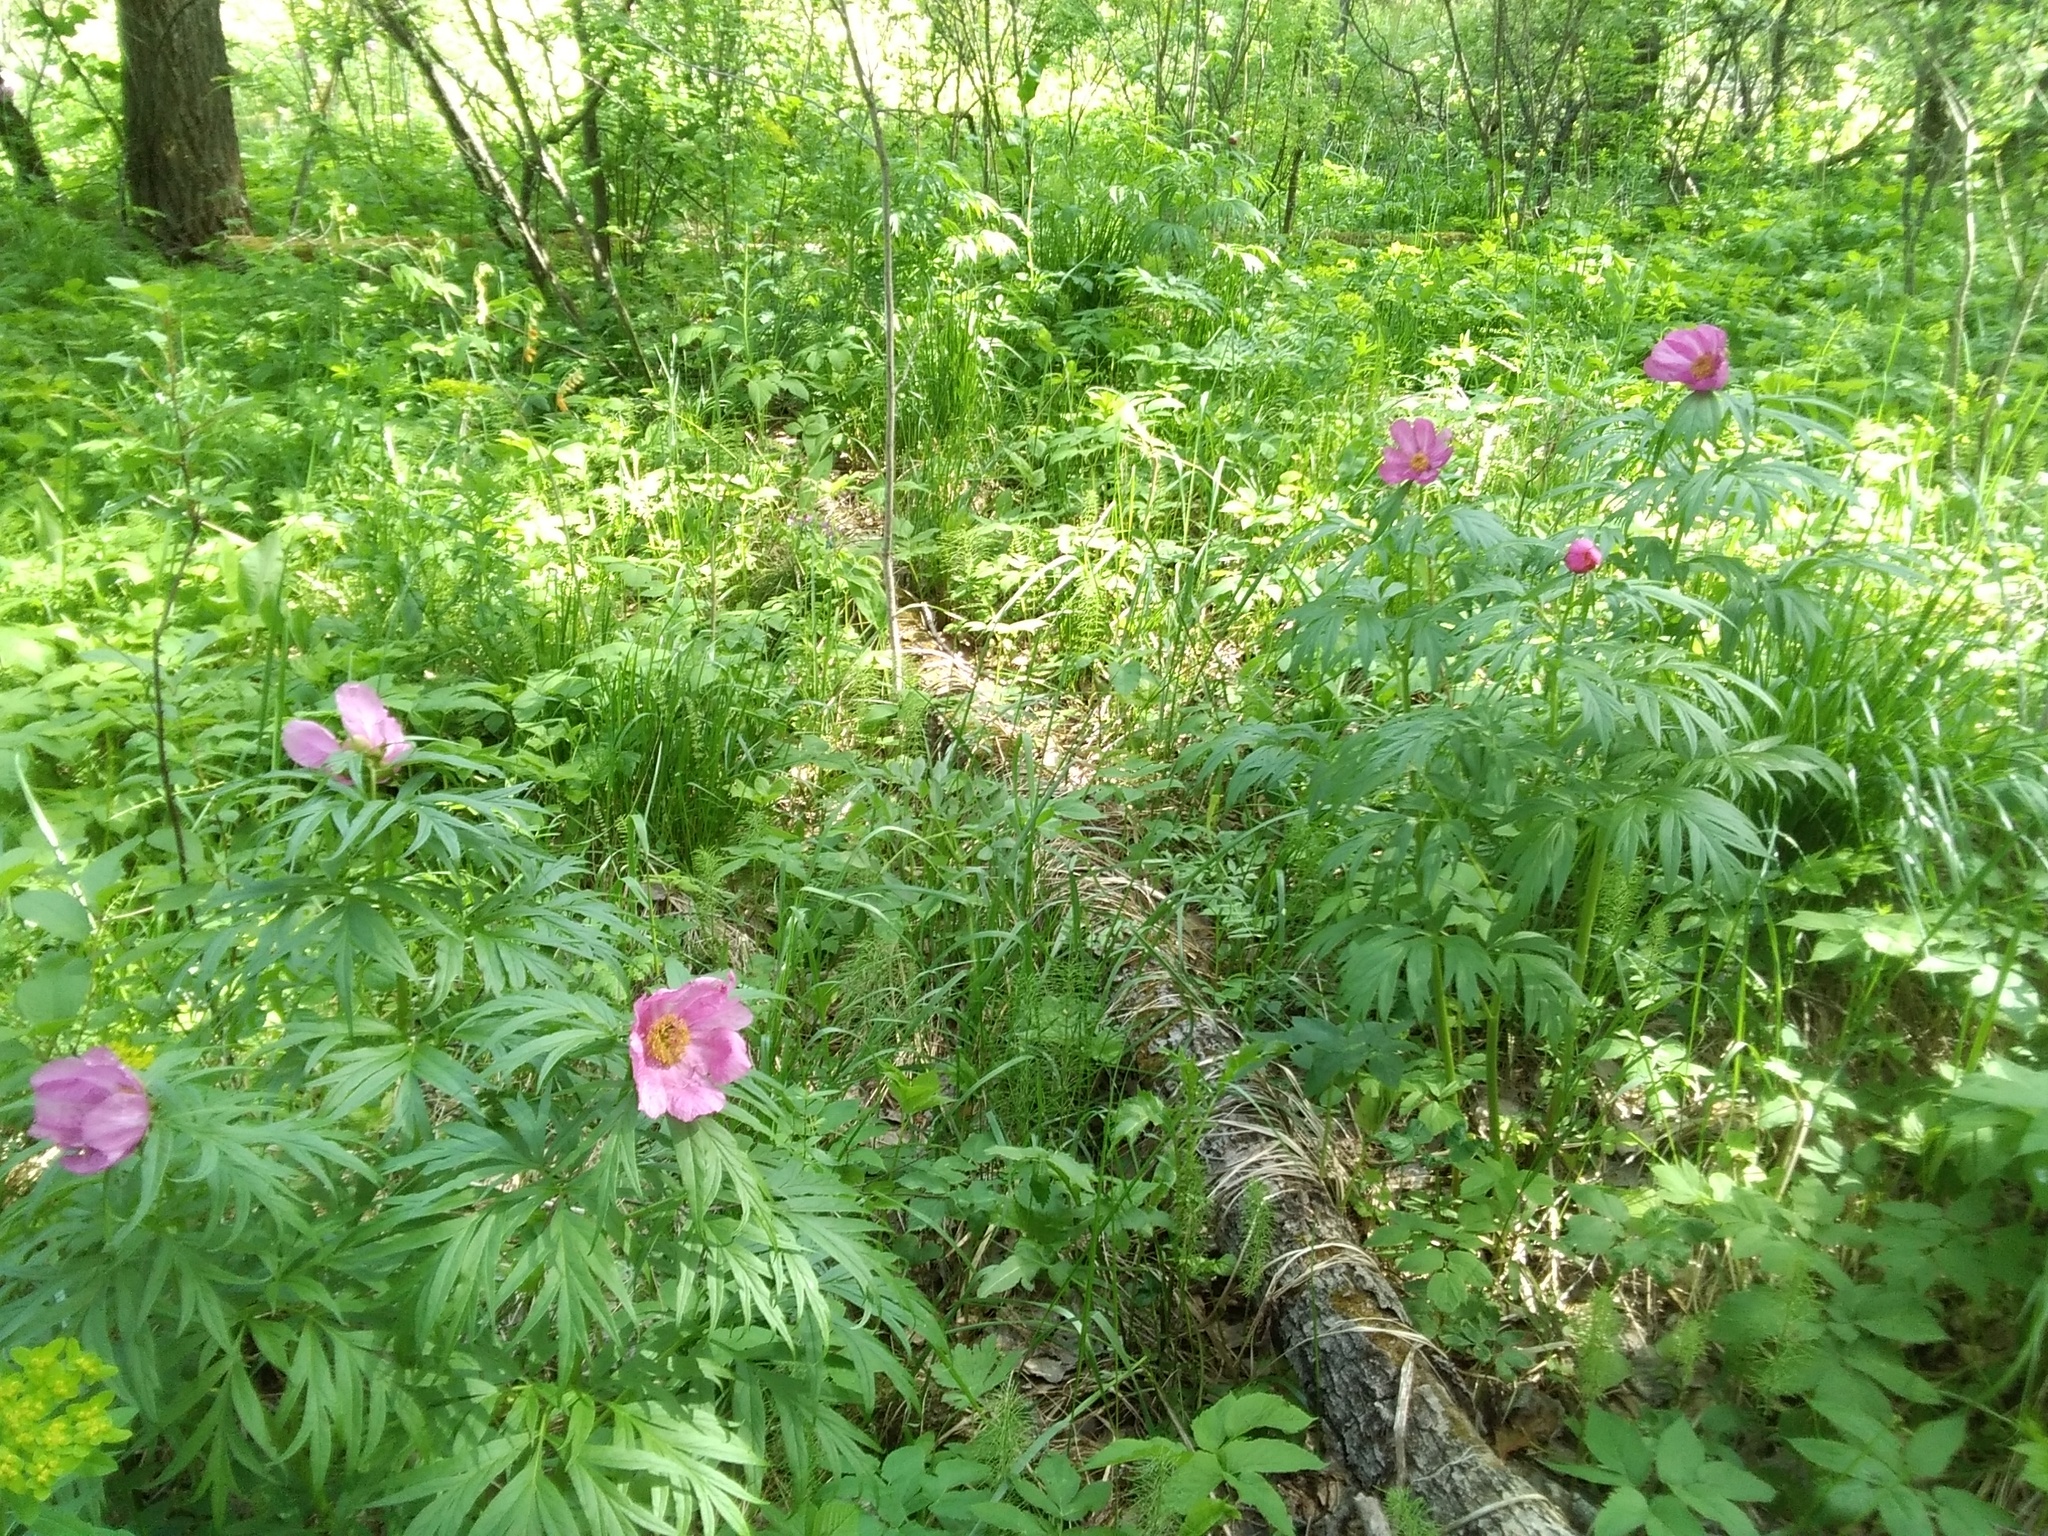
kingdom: Plantae
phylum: Tracheophyta
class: Magnoliopsida
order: Saxifragales
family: Paeoniaceae
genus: Paeonia
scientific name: Paeonia anomala
